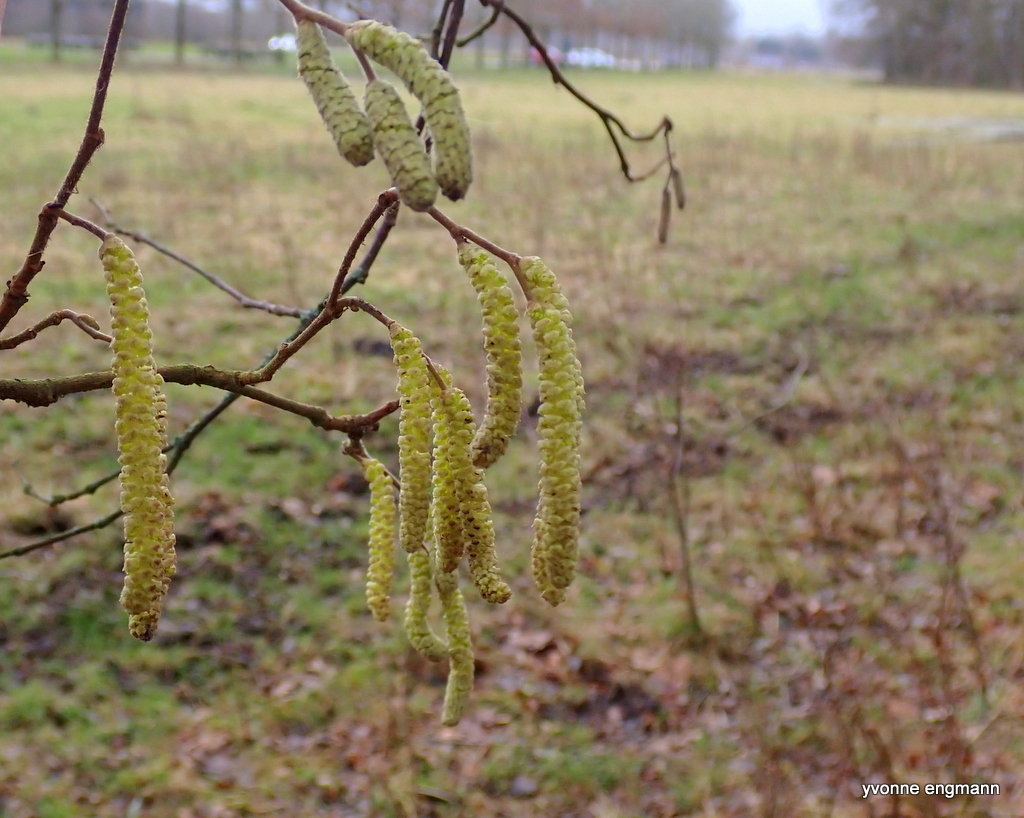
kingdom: Plantae
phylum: Tracheophyta
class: Magnoliopsida
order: Fagales
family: Betulaceae
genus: Corylus
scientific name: Corylus avellana
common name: European hazel
